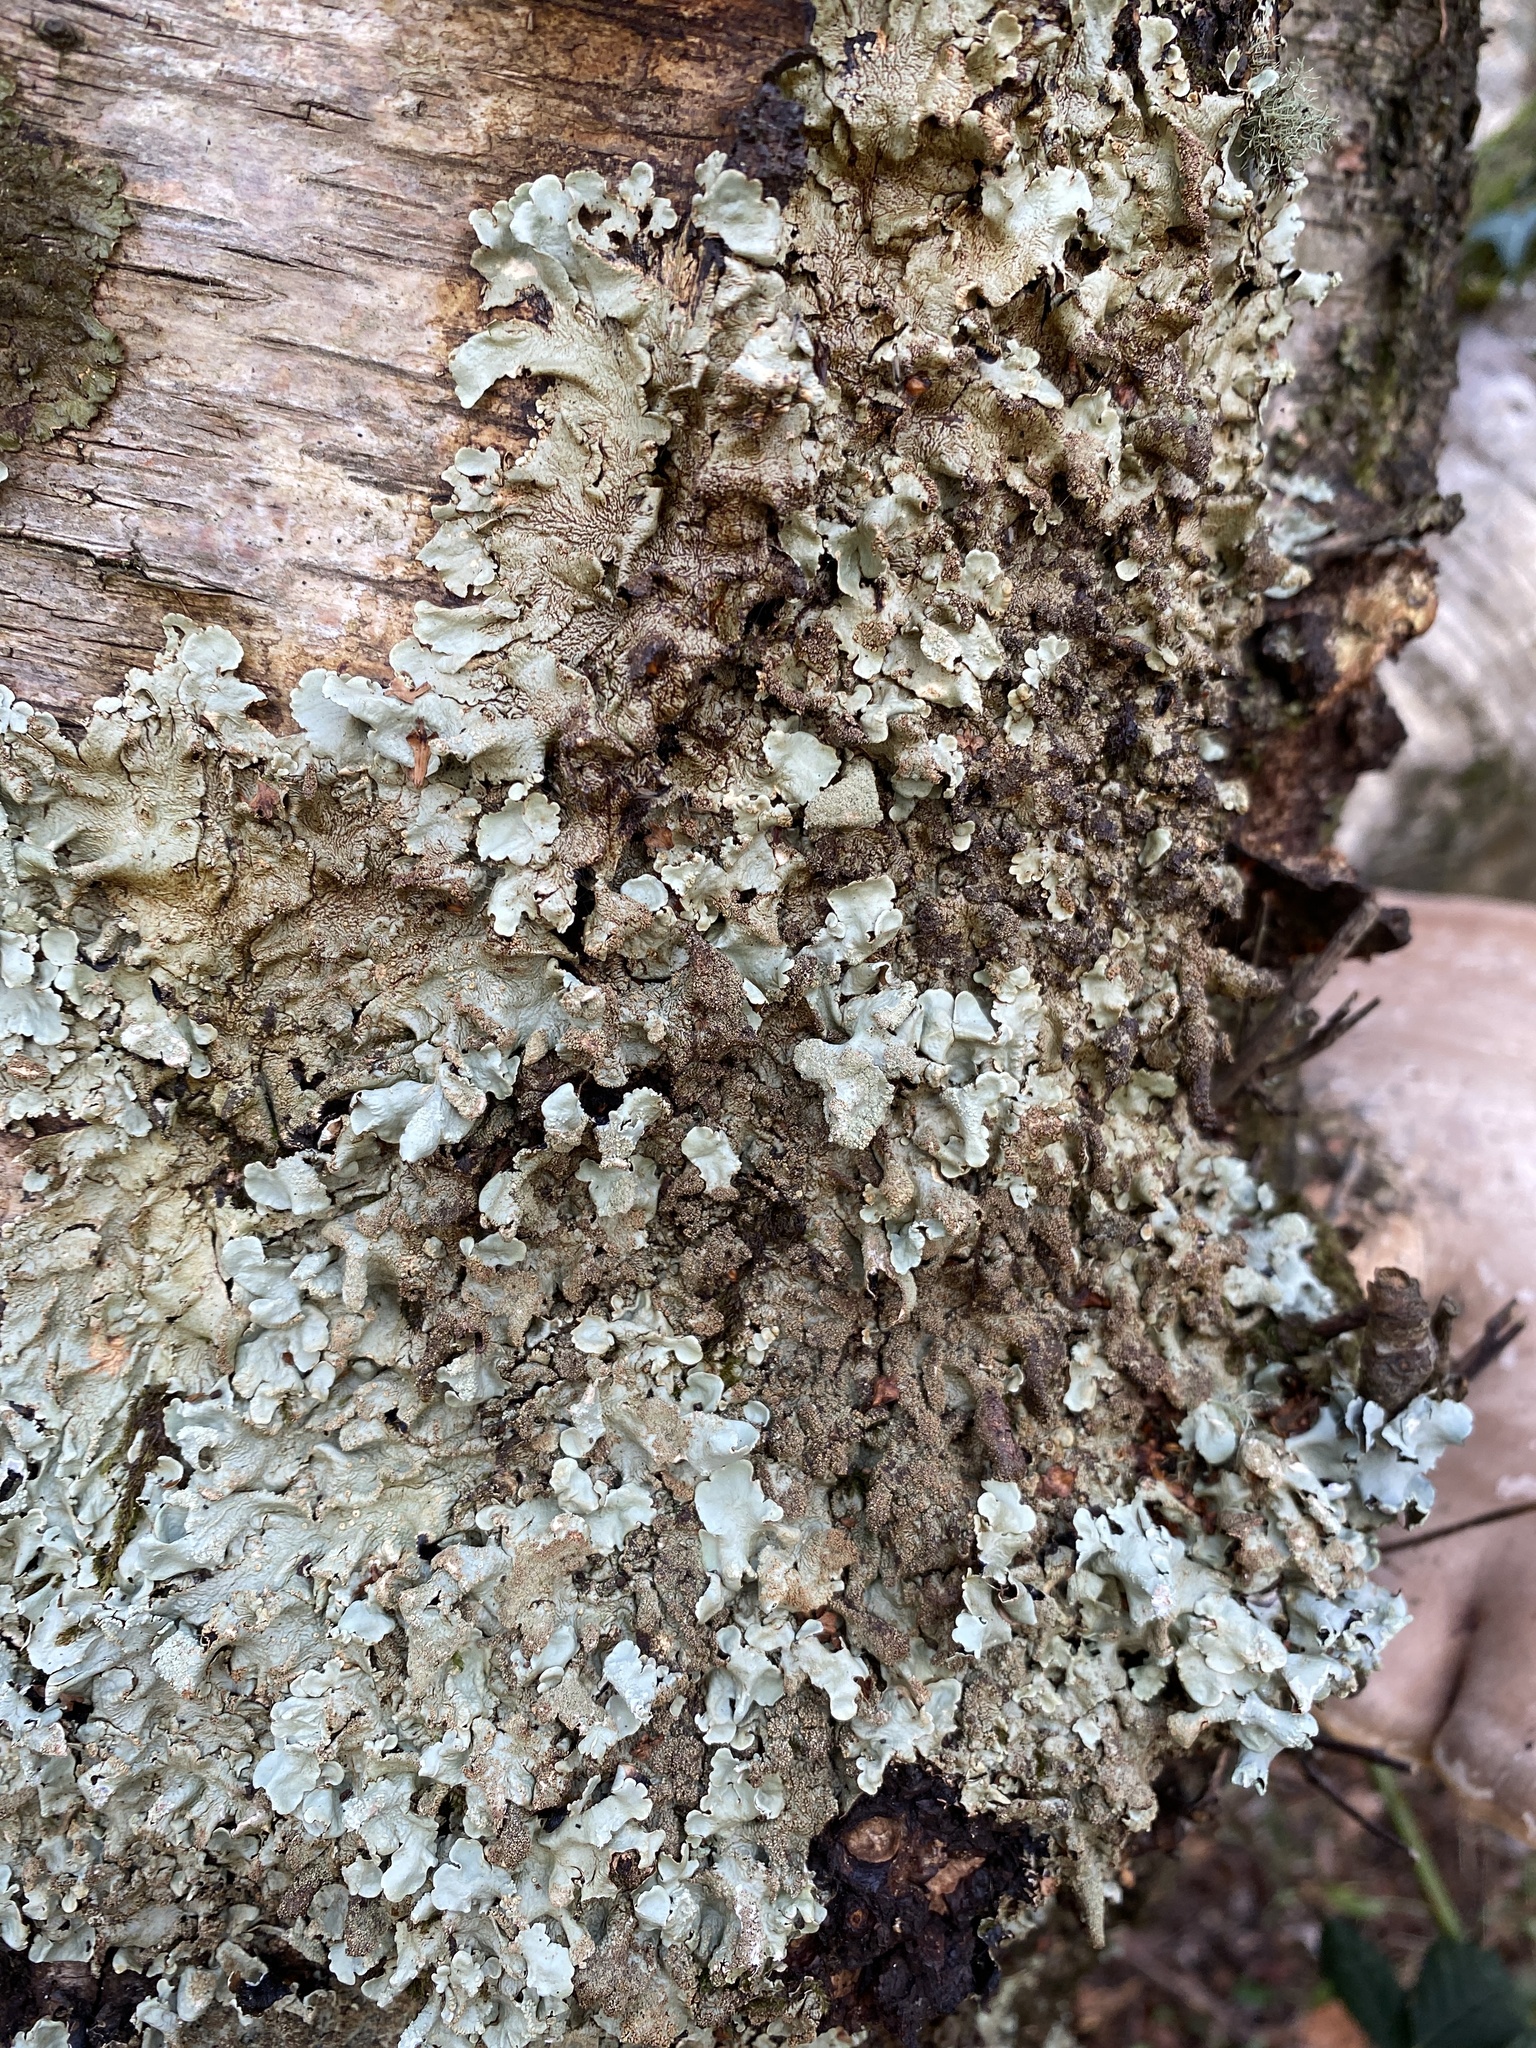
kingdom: Fungi
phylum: Ascomycota
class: Lecanoromycetes
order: Lecanorales
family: Parmeliaceae
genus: Flavoparmelia
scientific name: Flavoparmelia caperata
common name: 40-mile per hour lichen
